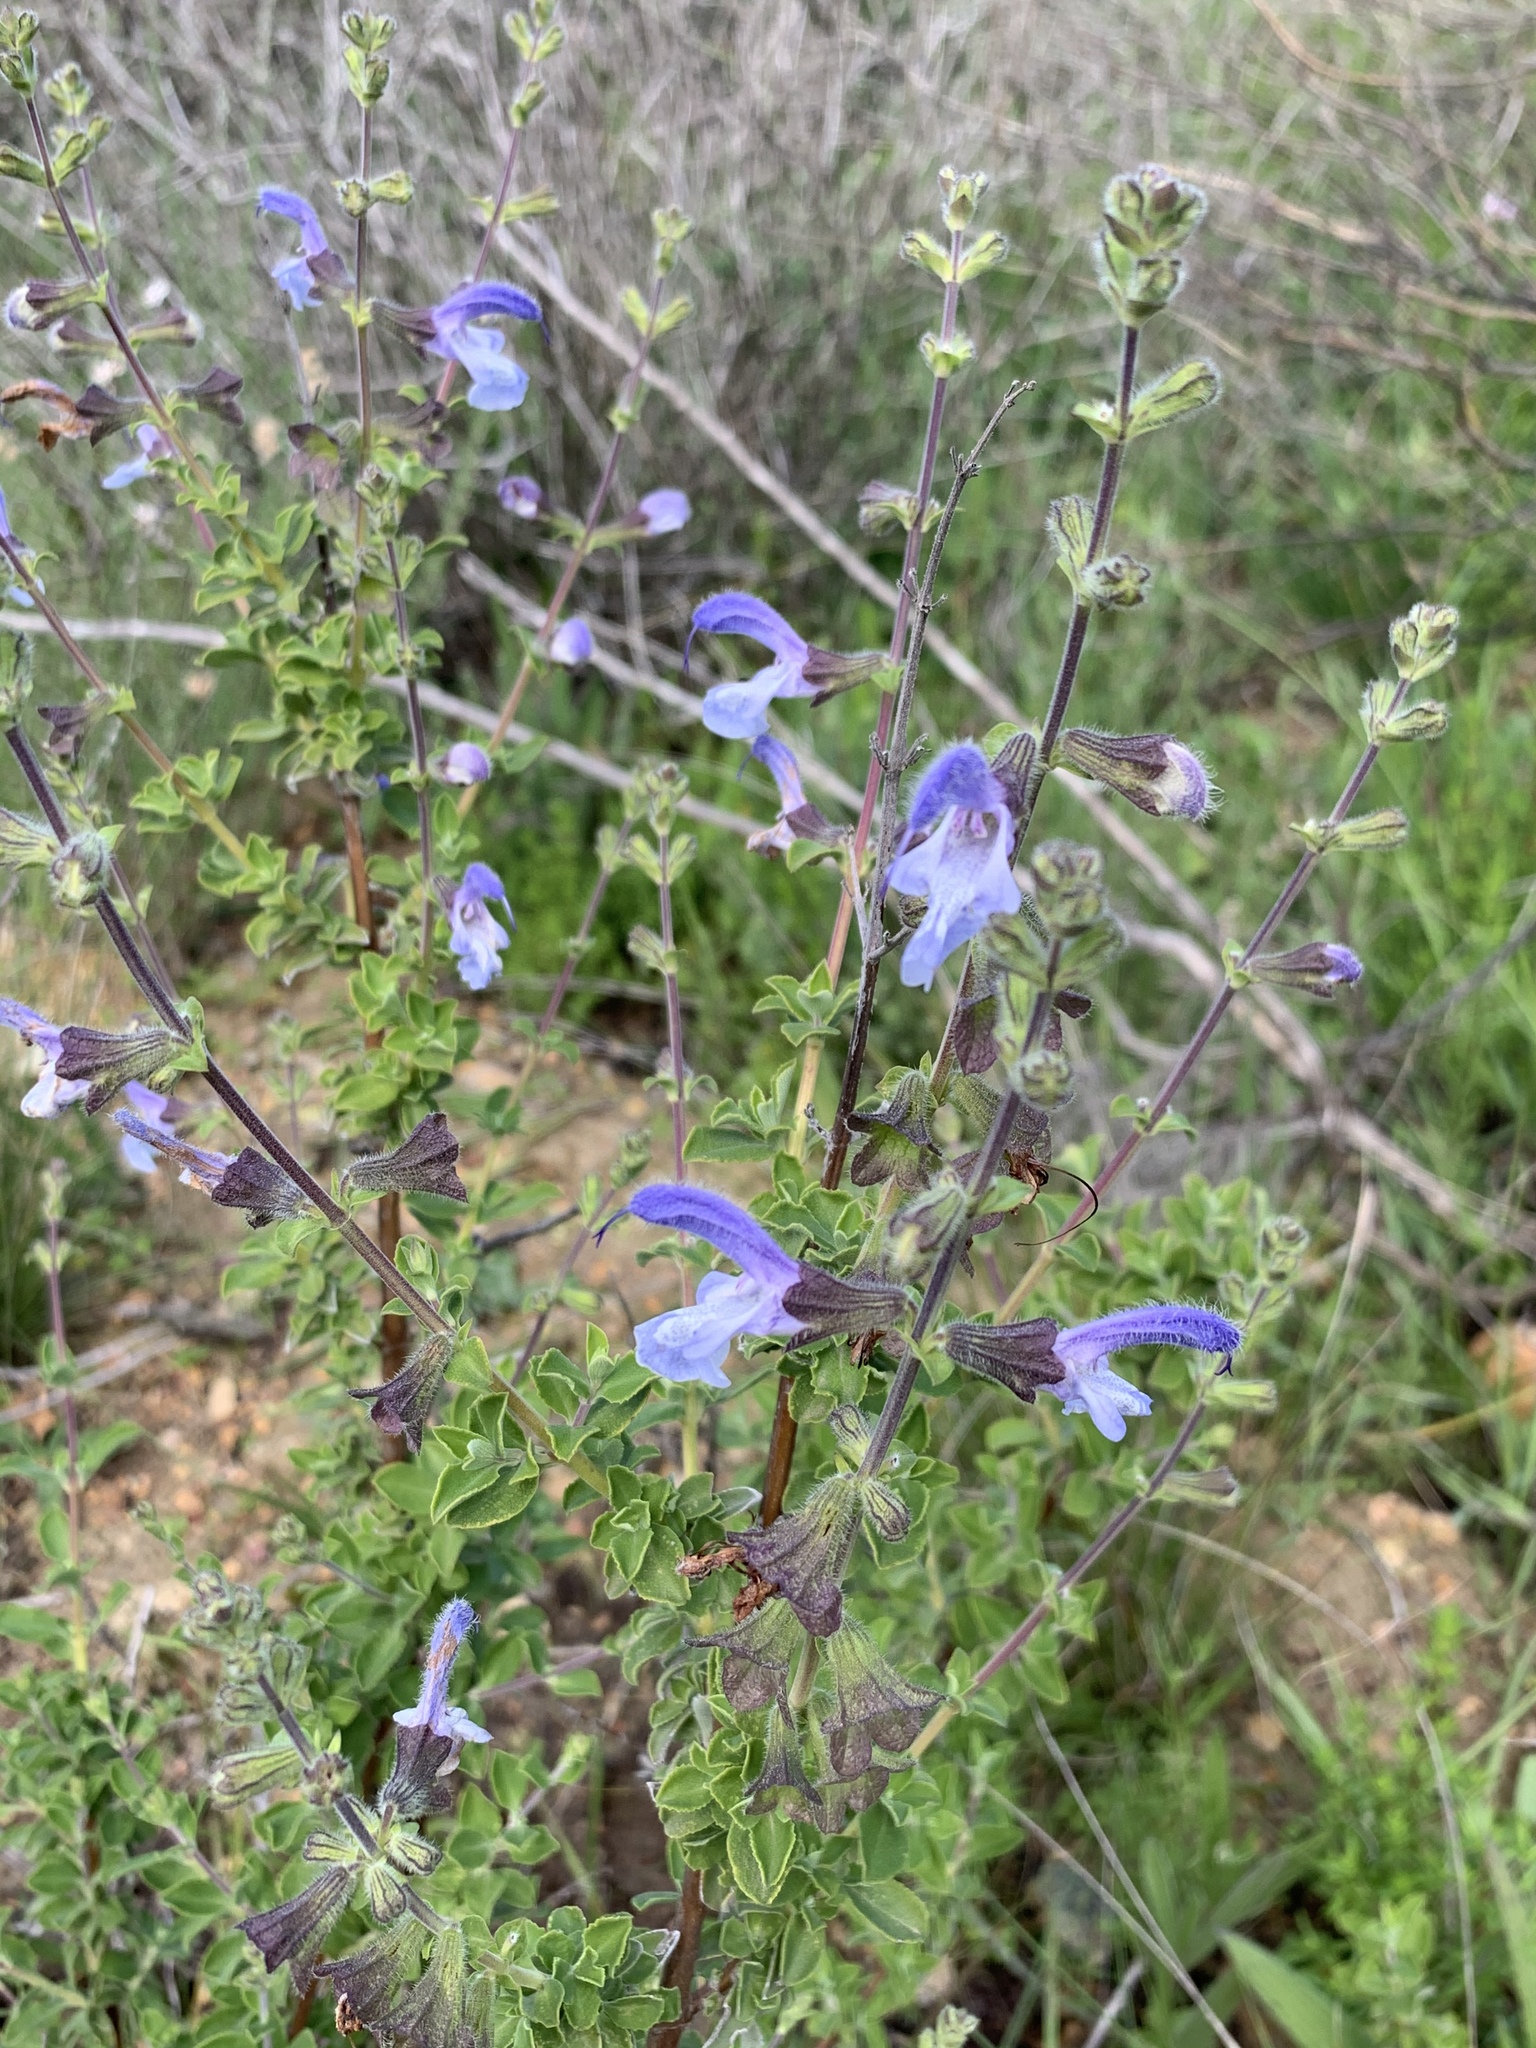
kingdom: Plantae
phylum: Tracheophyta
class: Magnoliopsida
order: Lamiales
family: Lamiaceae
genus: Salvia
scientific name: Salvia africana
